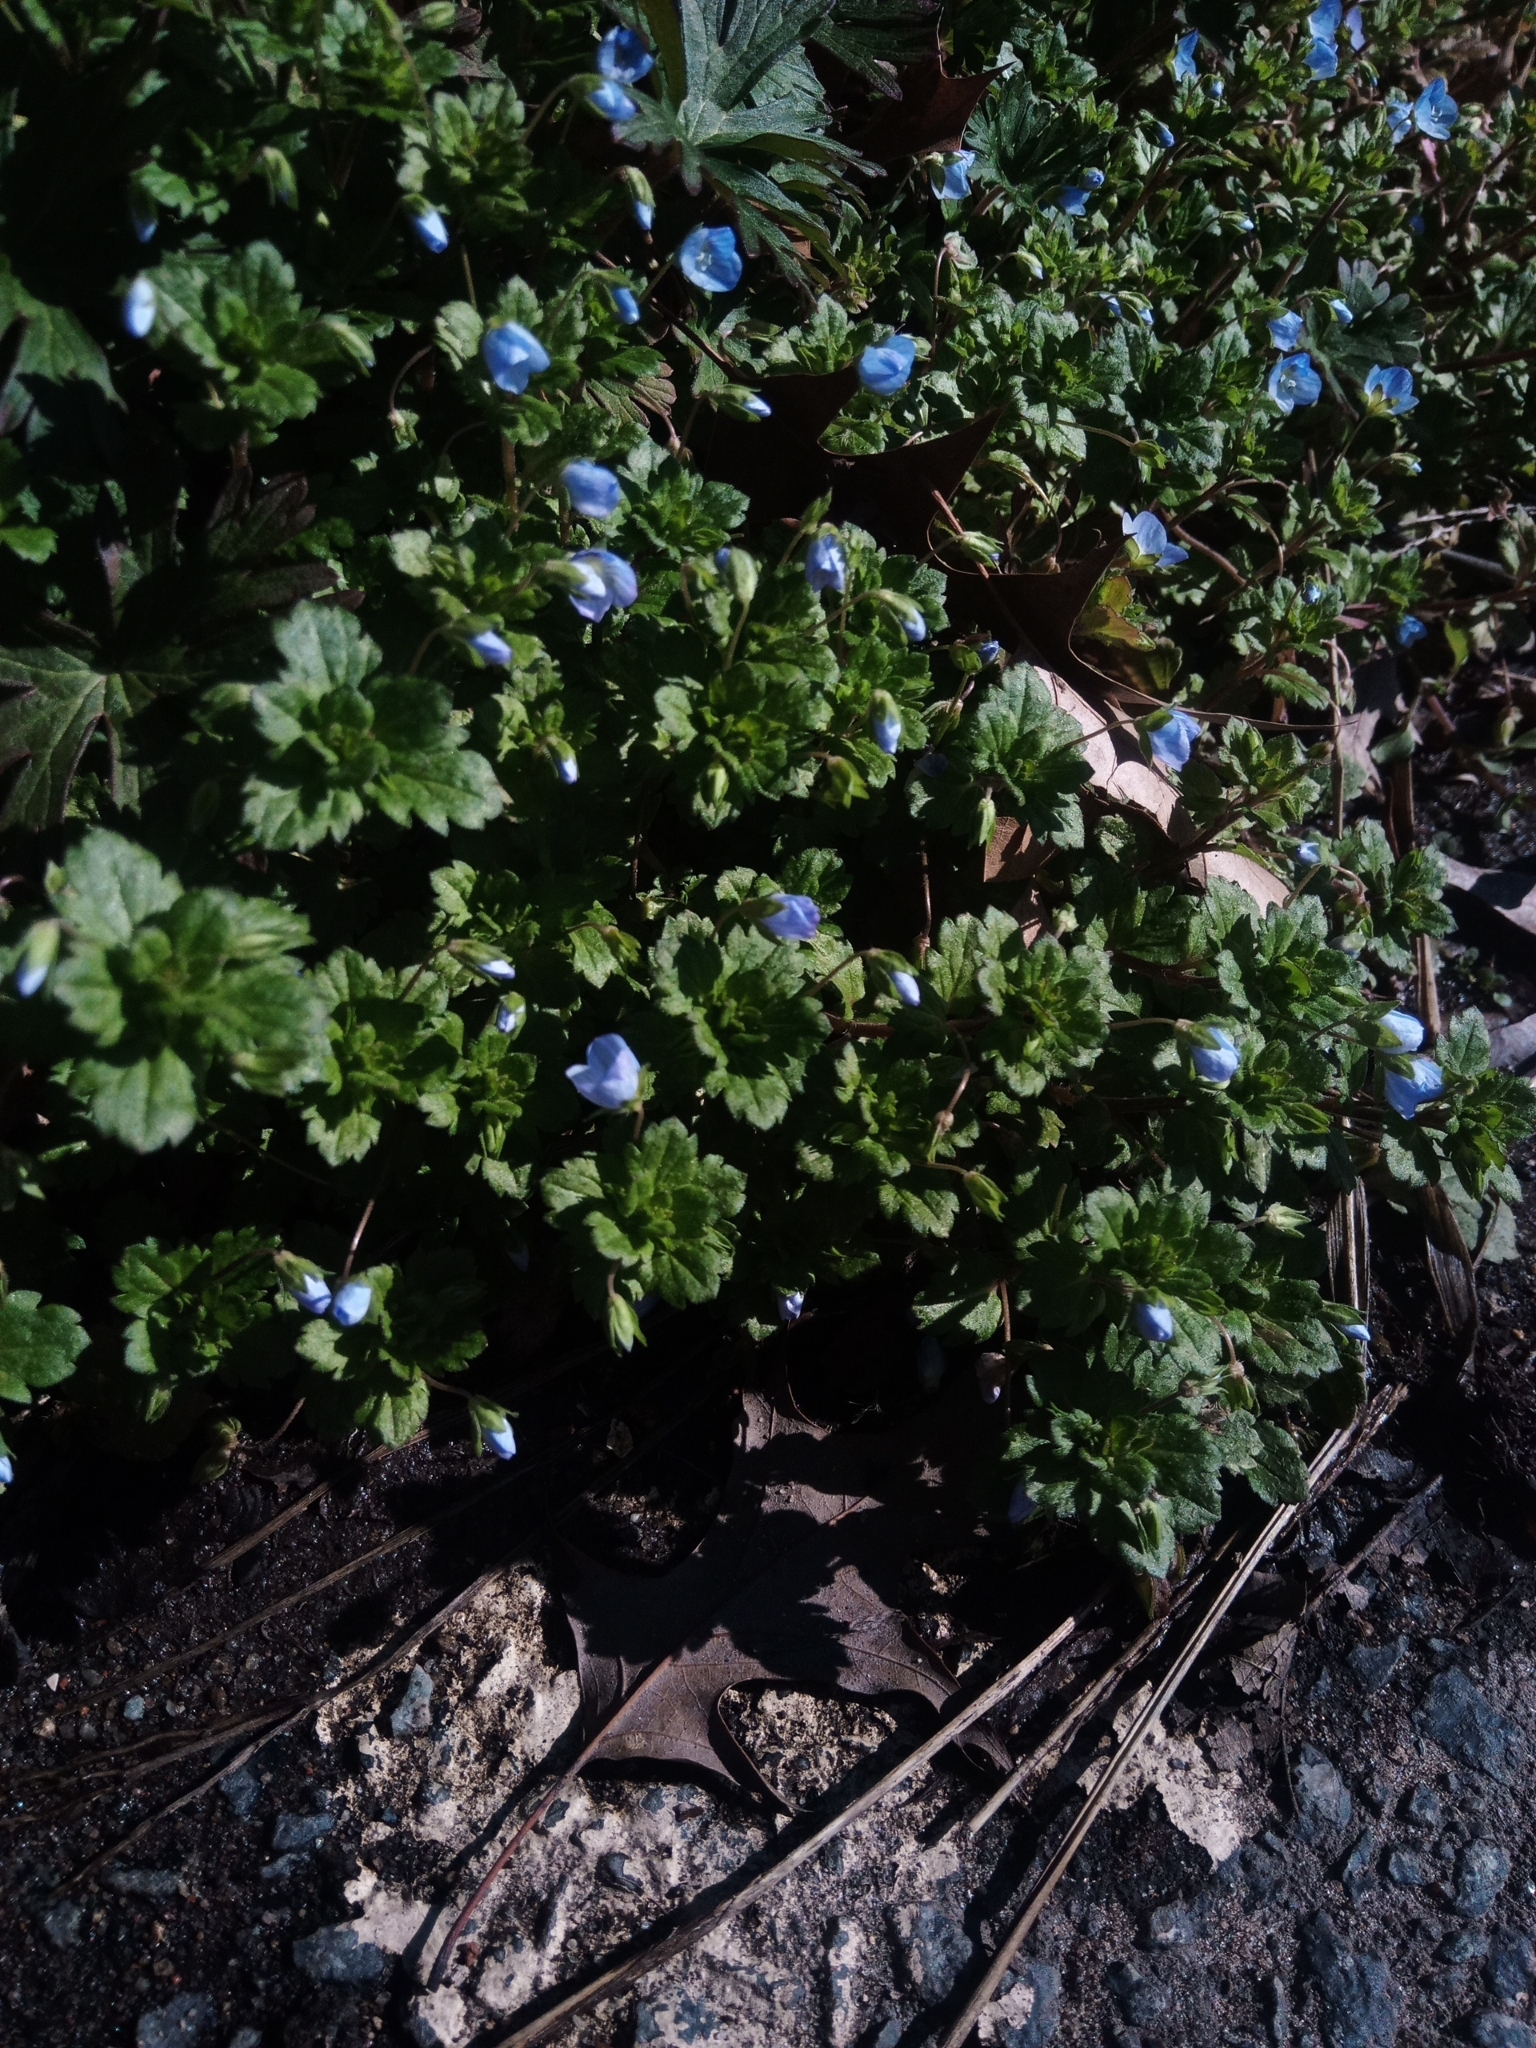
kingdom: Plantae
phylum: Tracheophyta
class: Magnoliopsida
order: Lamiales
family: Plantaginaceae
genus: Veronica
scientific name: Veronica persica
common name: Common field-speedwell
